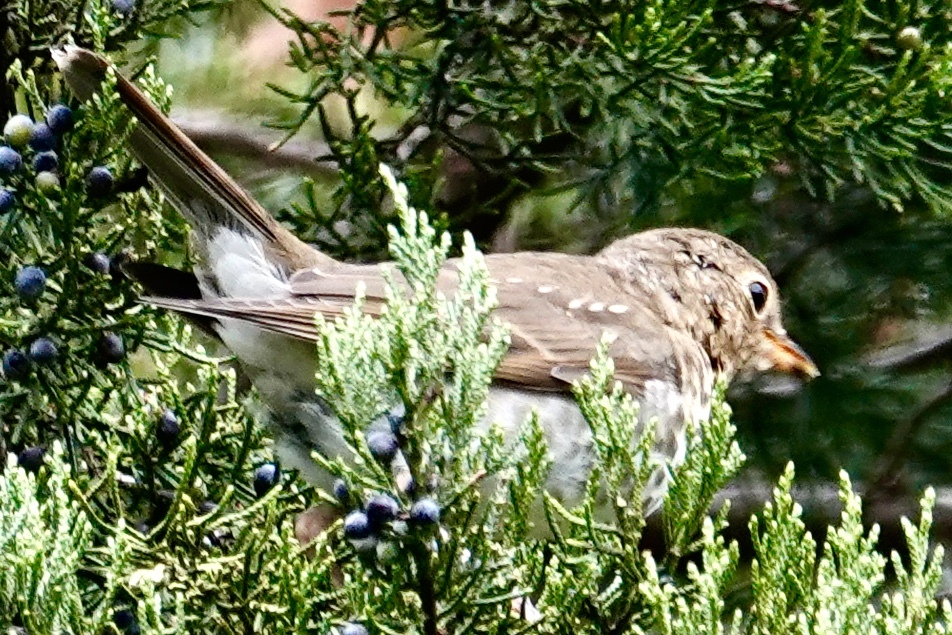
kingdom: Animalia
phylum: Chordata
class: Aves
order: Passeriformes
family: Turdidae
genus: Catharus
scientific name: Catharus ustulatus
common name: Swainson's thrush
